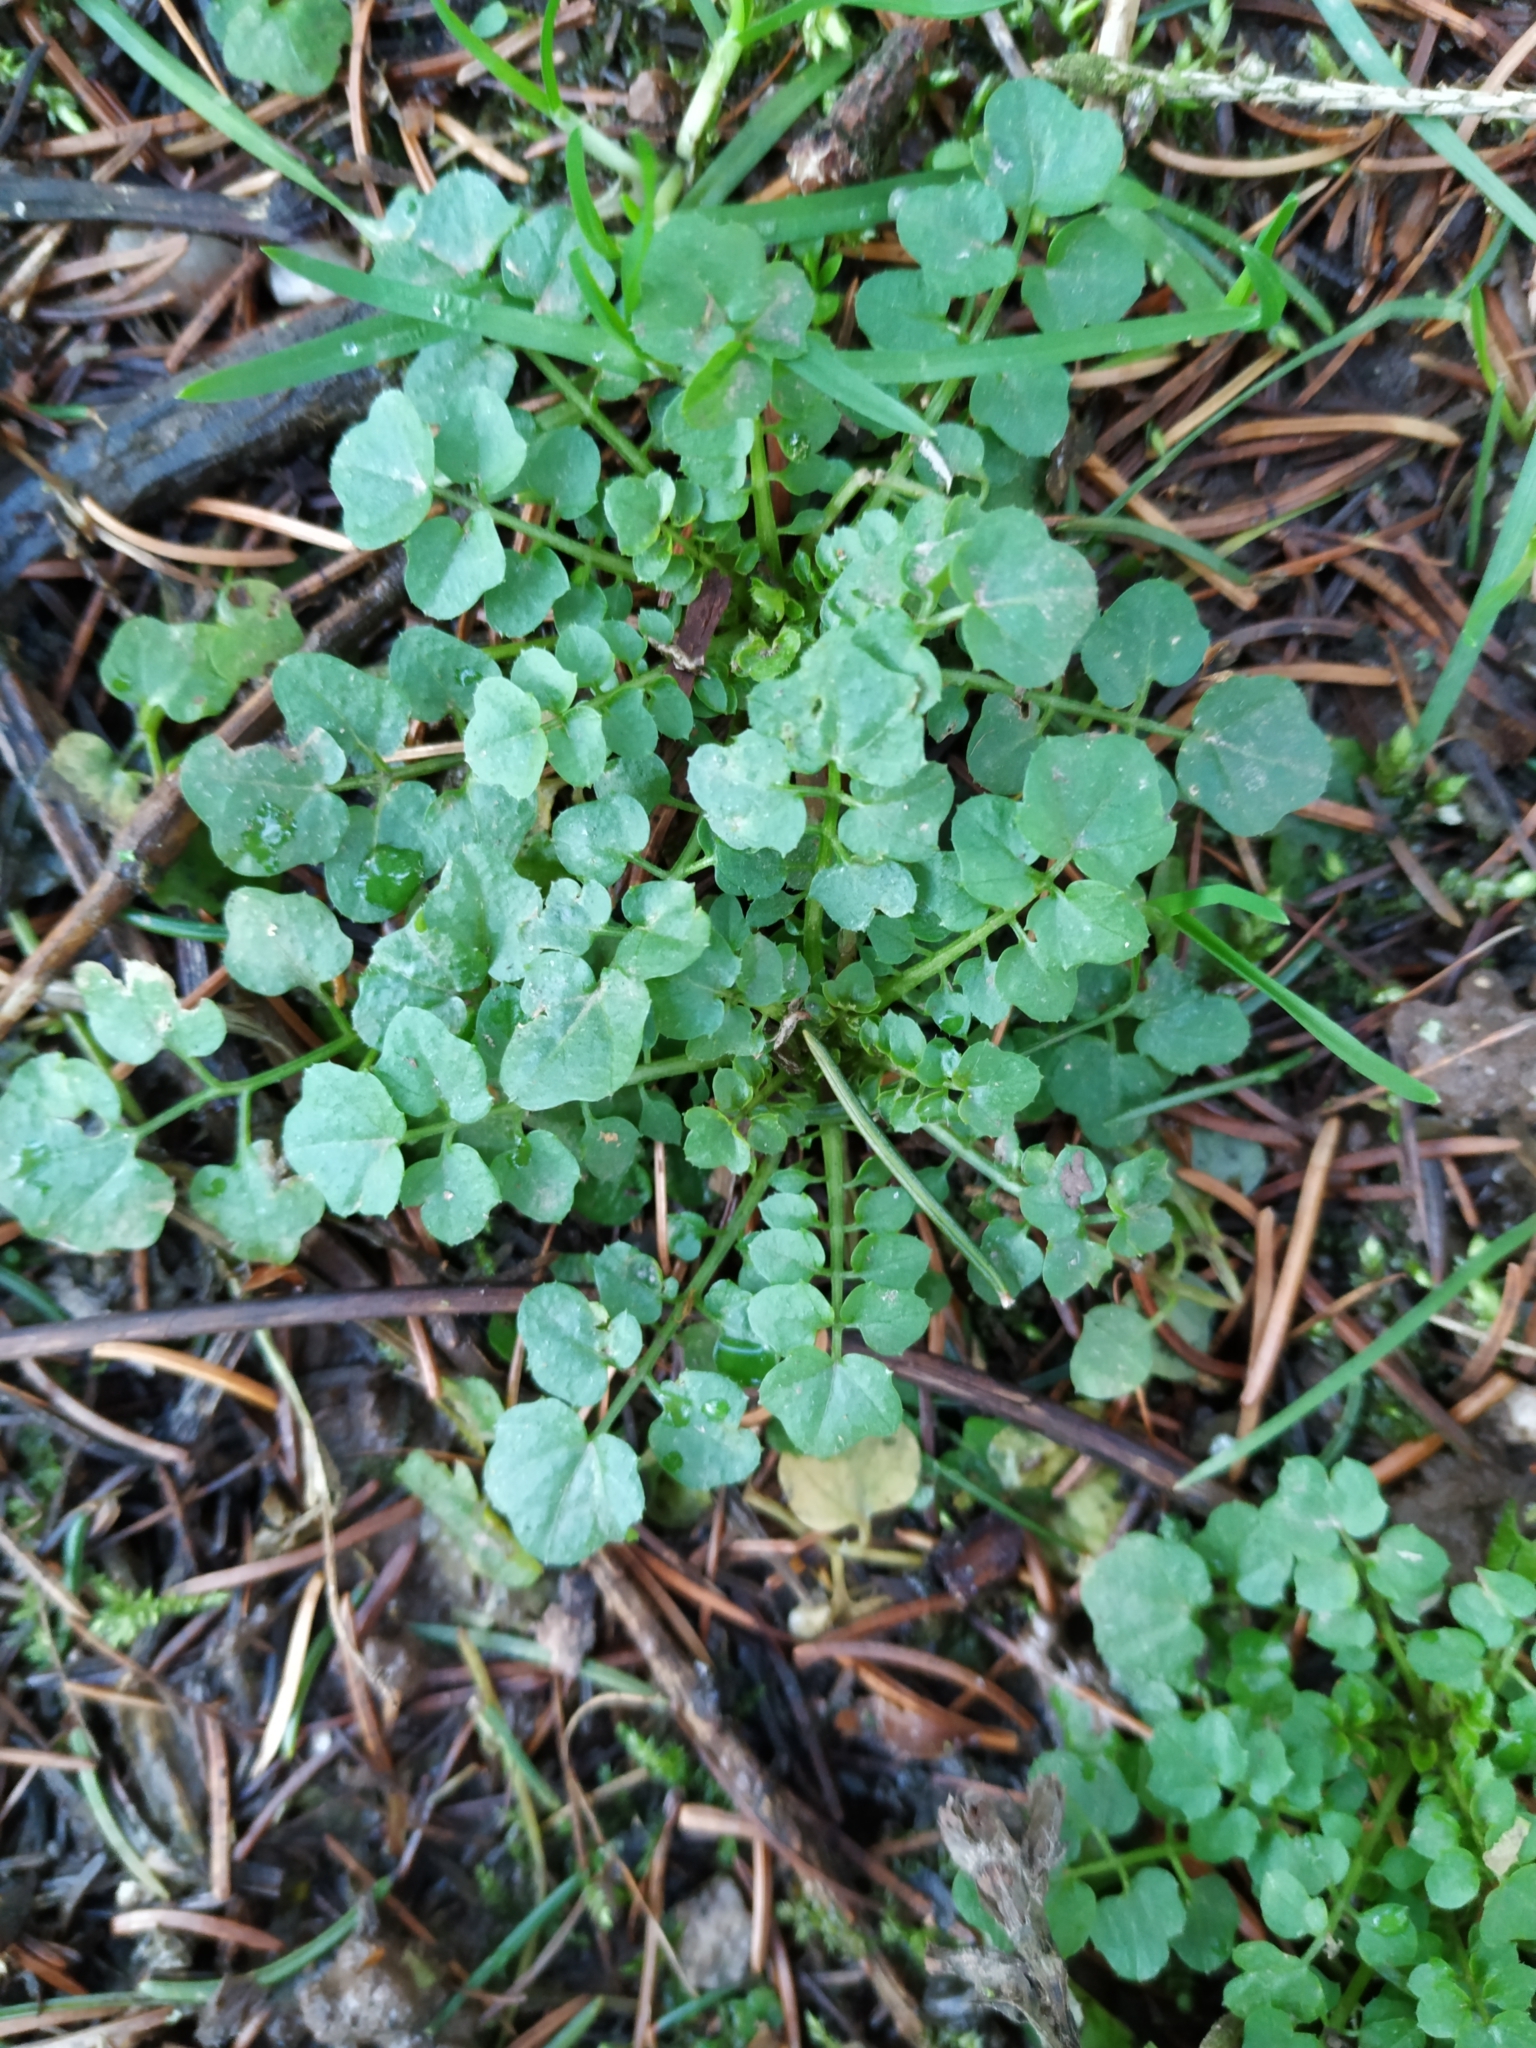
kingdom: Plantae
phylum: Tracheophyta
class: Magnoliopsida
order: Brassicales
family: Brassicaceae
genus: Cardamine
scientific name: Cardamine flexuosa
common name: Woodland bittercress
